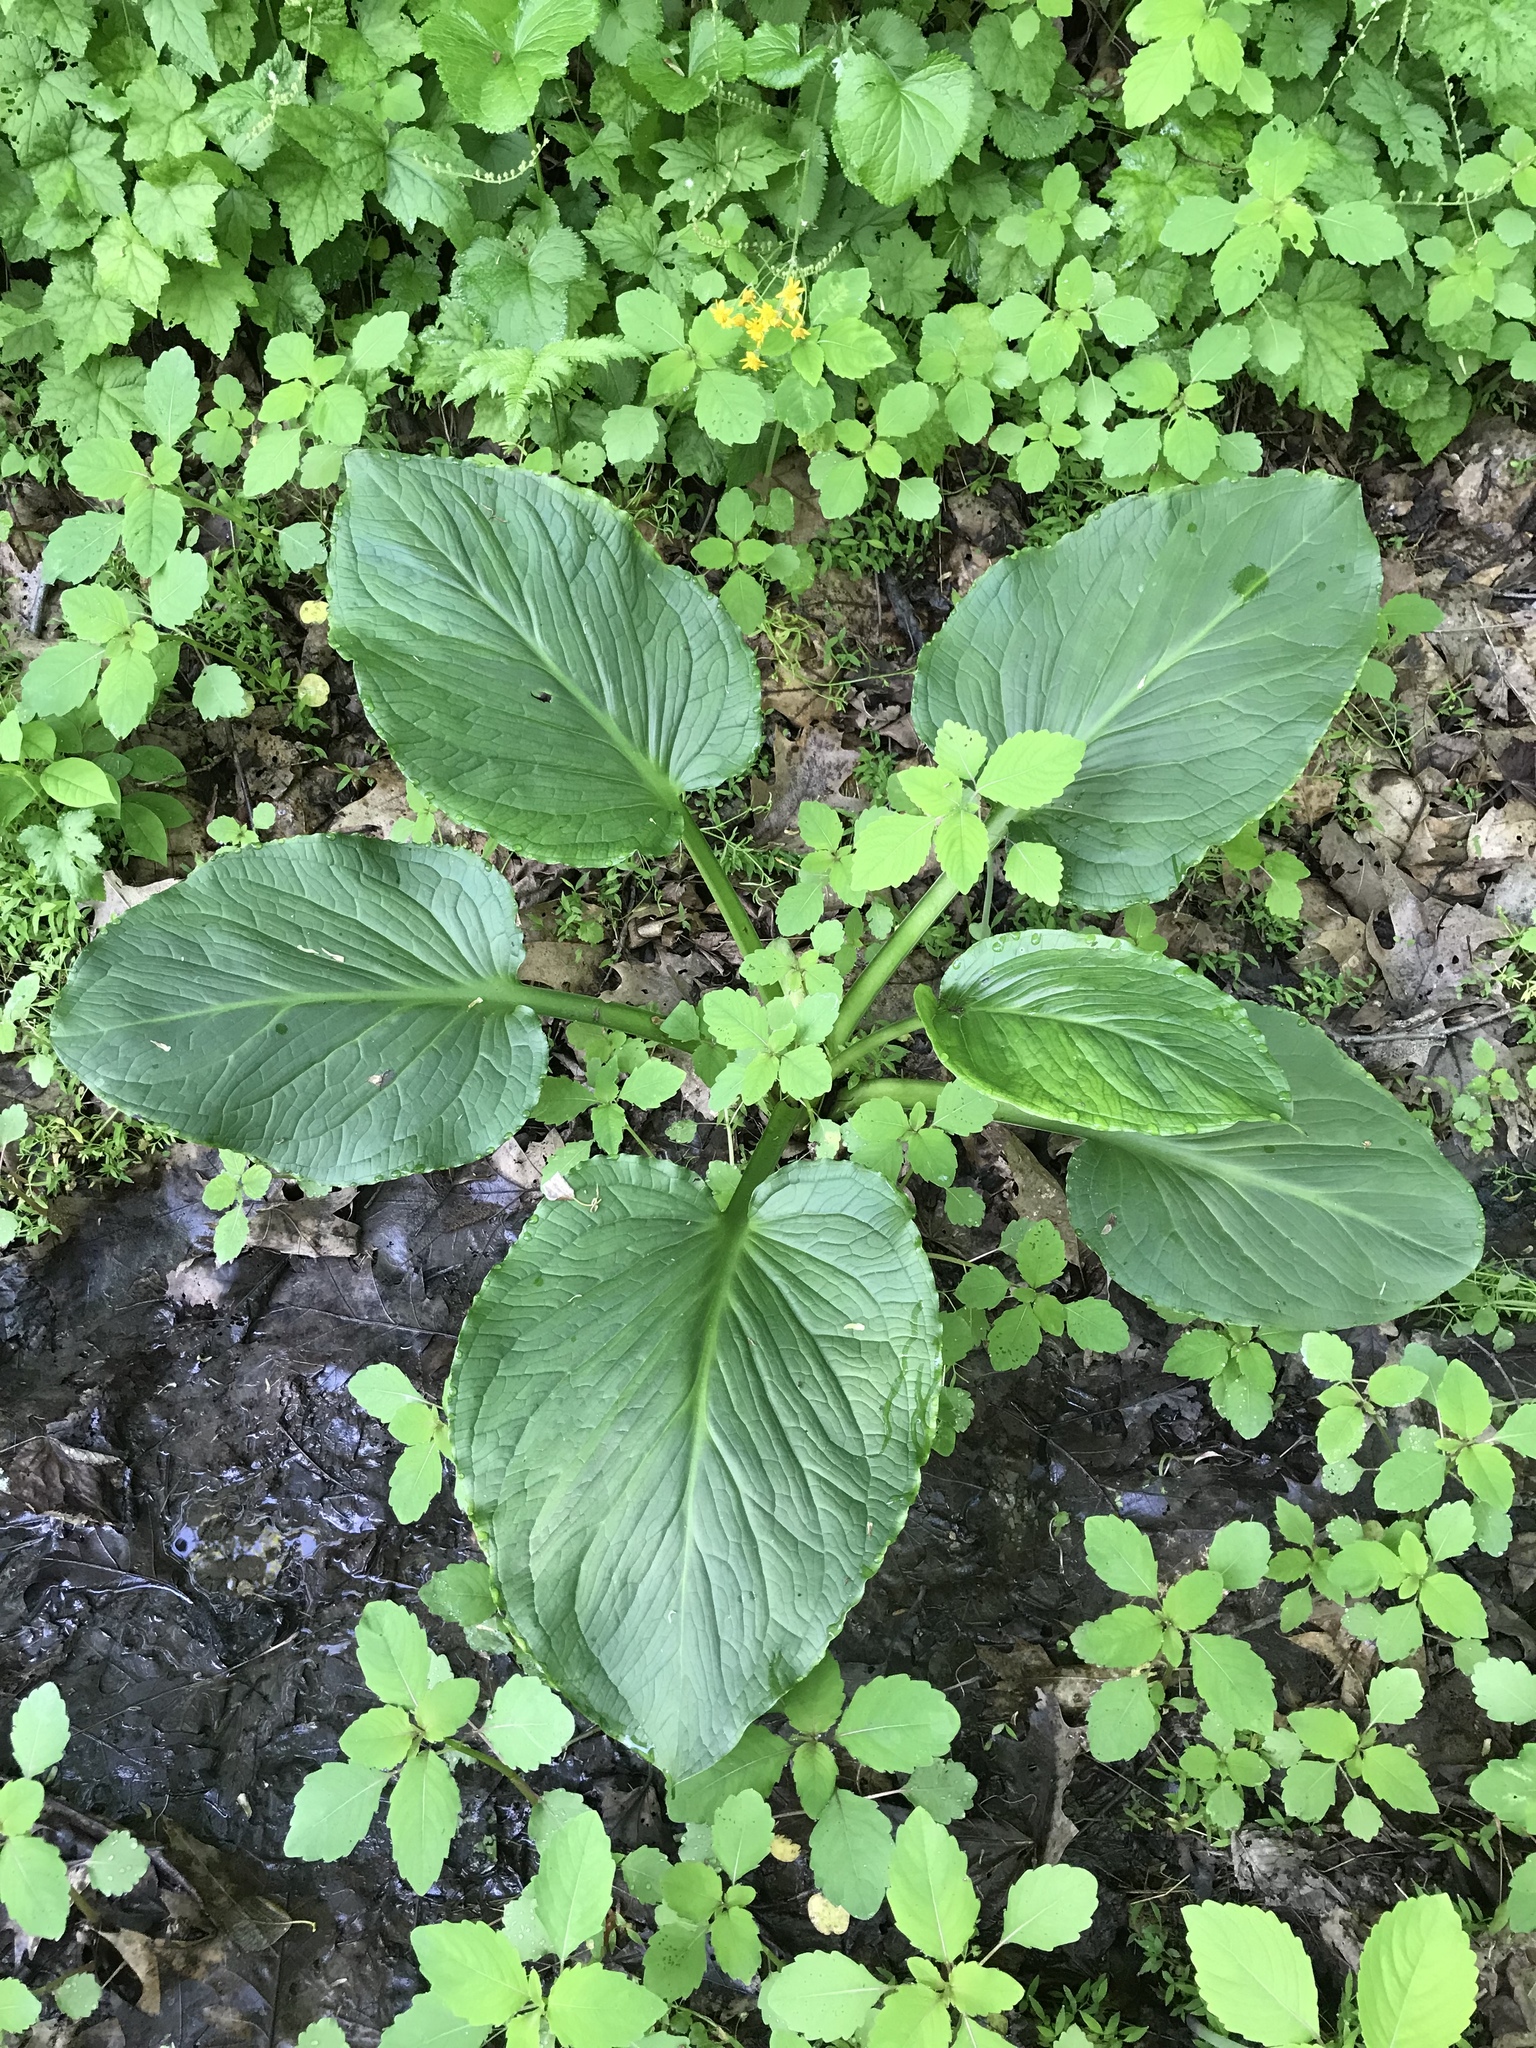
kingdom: Plantae
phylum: Tracheophyta
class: Liliopsida
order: Alismatales
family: Araceae
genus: Symplocarpus
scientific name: Symplocarpus foetidus
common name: Eastern skunk cabbage
